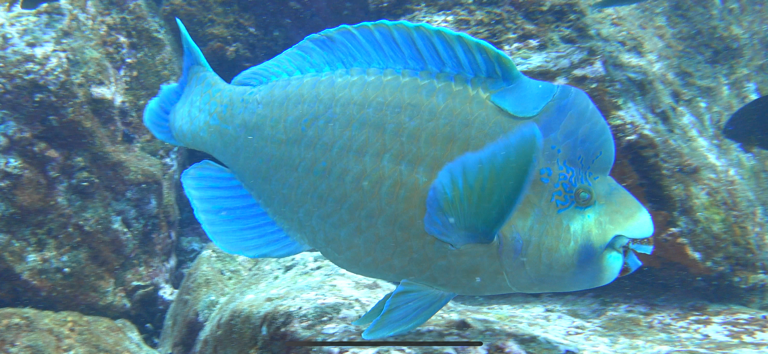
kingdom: Animalia
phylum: Chordata
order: Perciformes
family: Scaridae
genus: Scarus
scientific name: Scarus perrico
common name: Bumphead parrotfish
